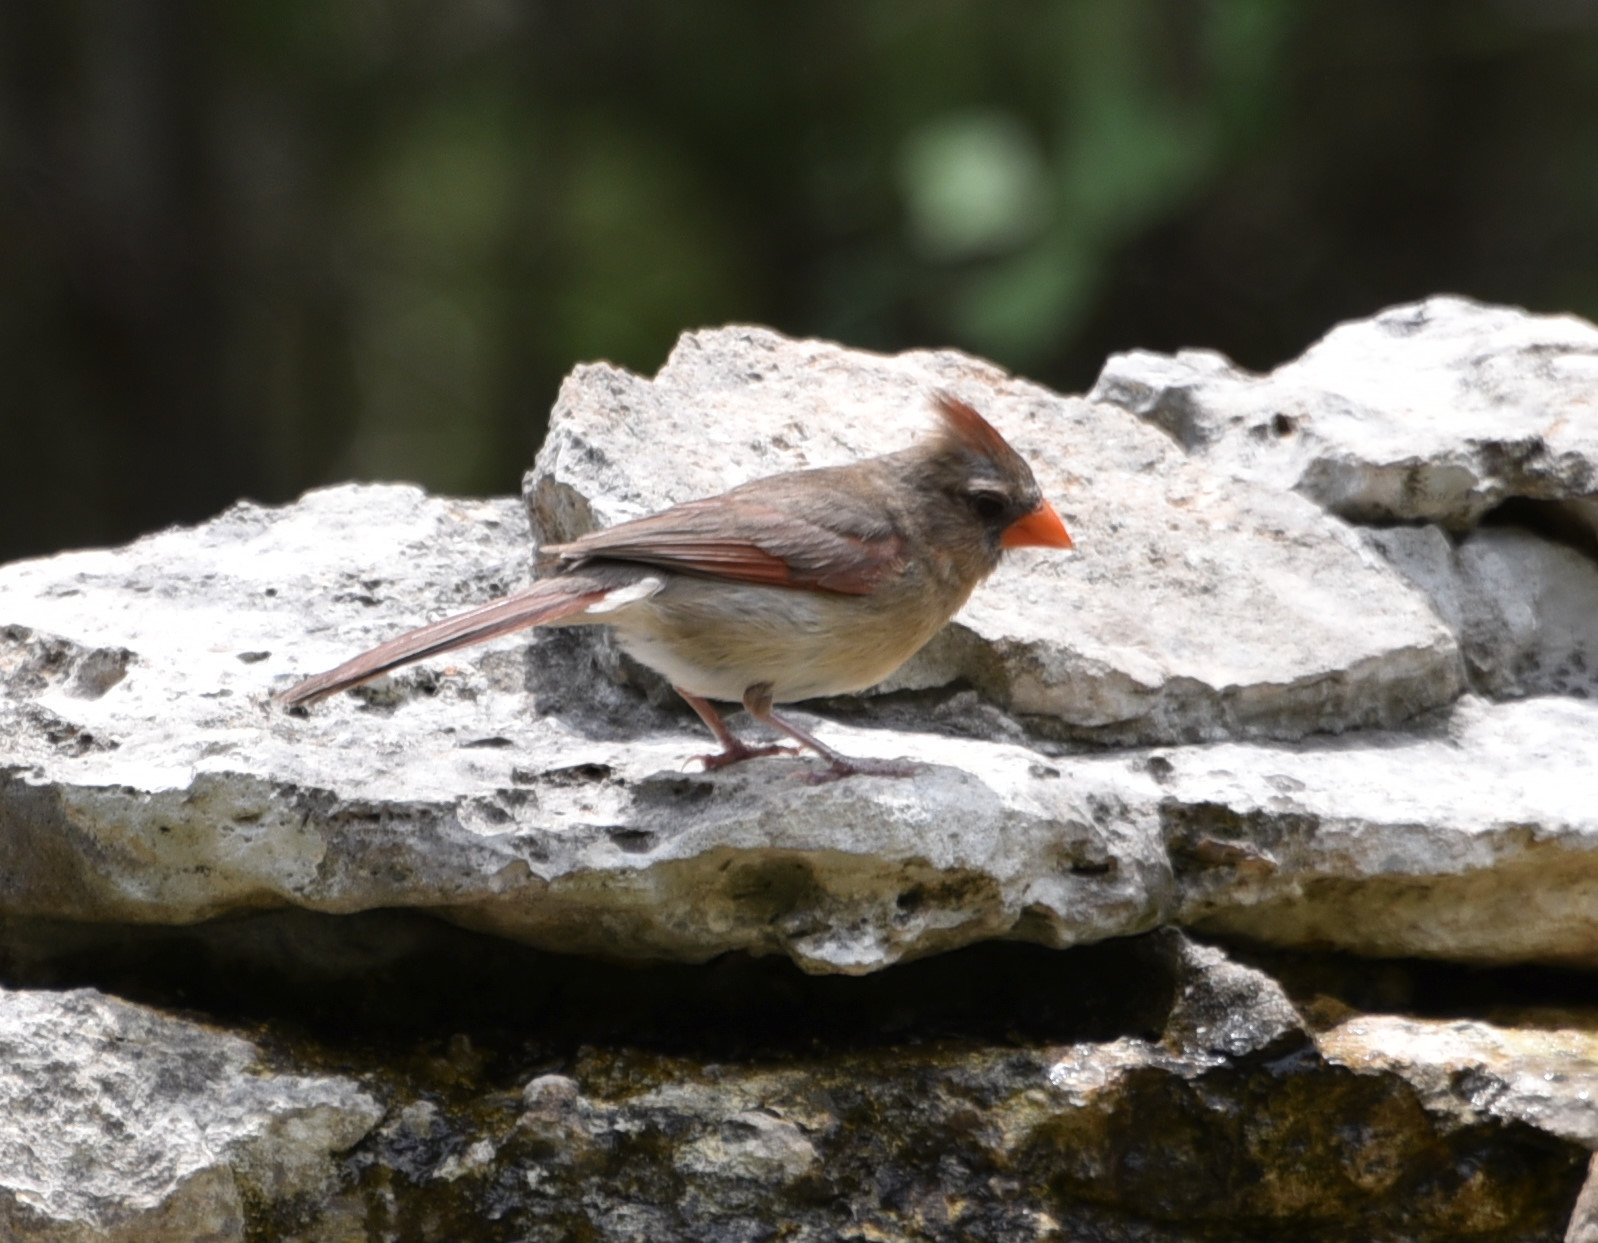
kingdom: Animalia
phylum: Chordata
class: Aves
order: Passeriformes
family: Cardinalidae
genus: Cardinalis
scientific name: Cardinalis cardinalis
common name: Northern cardinal
